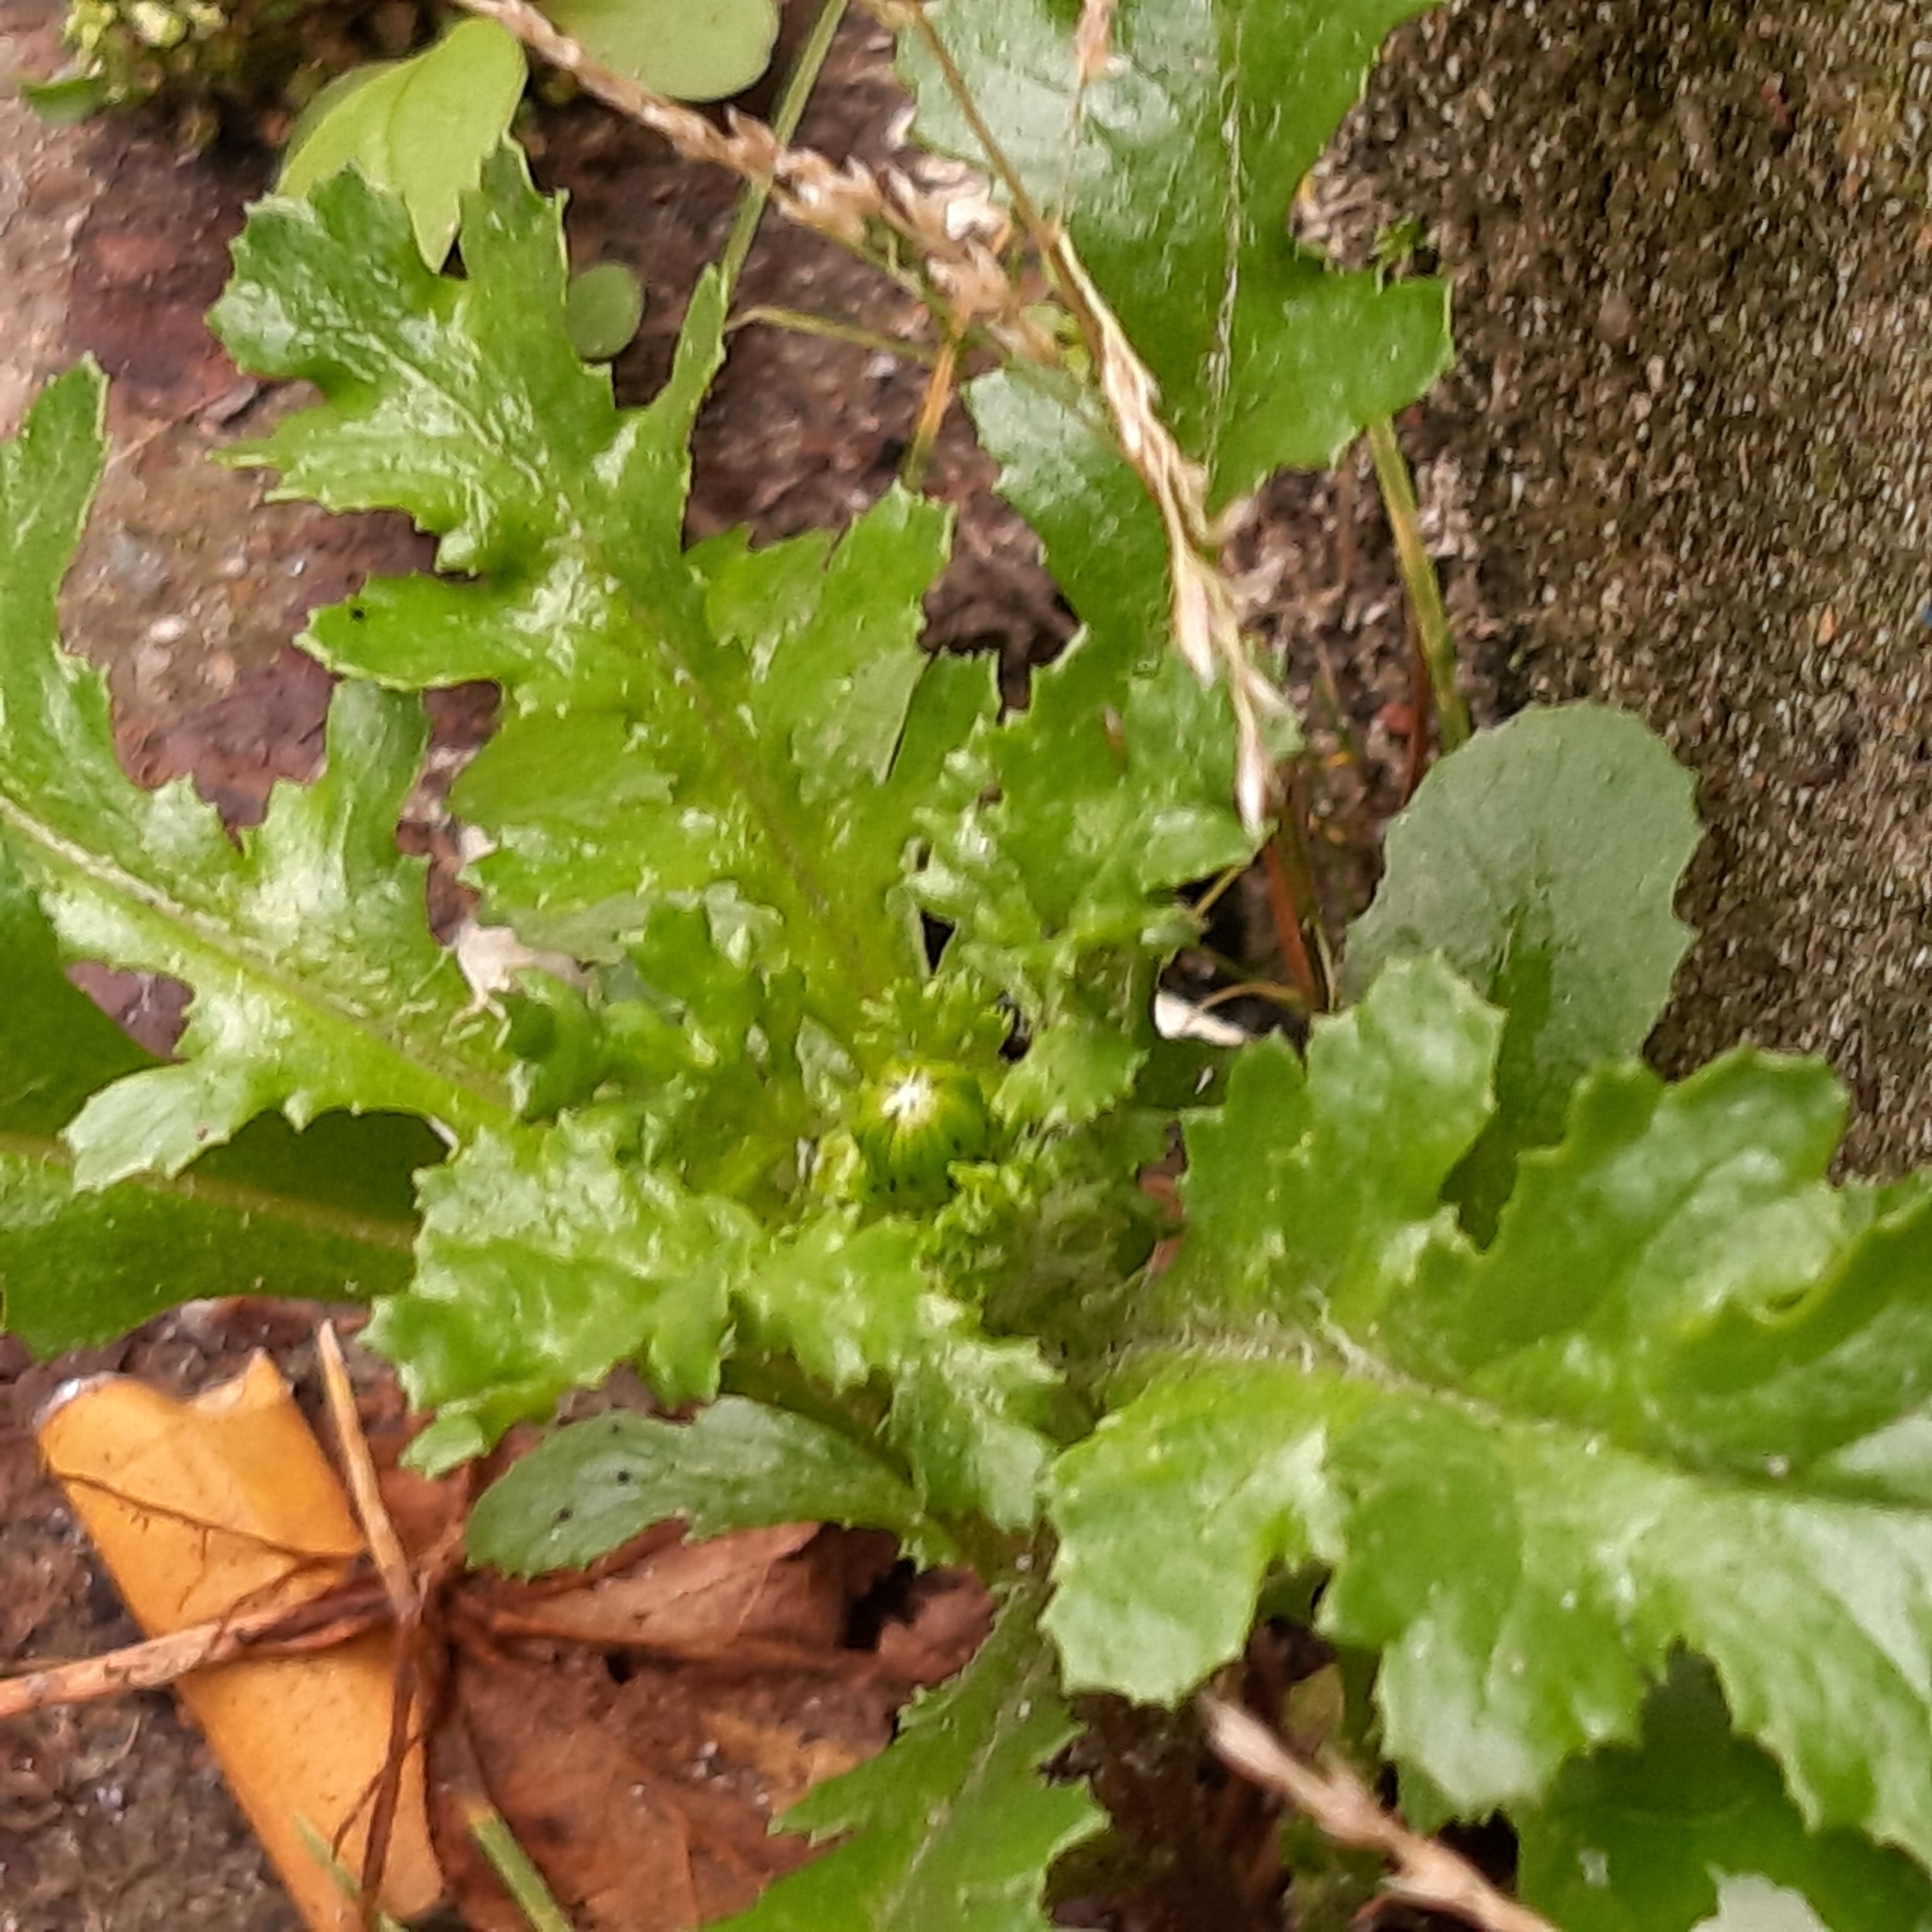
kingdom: Plantae
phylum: Tracheophyta
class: Magnoliopsida
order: Asterales
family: Asteraceae
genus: Senecio
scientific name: Senecio vulgaris
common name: Old-man-in-the-spring
